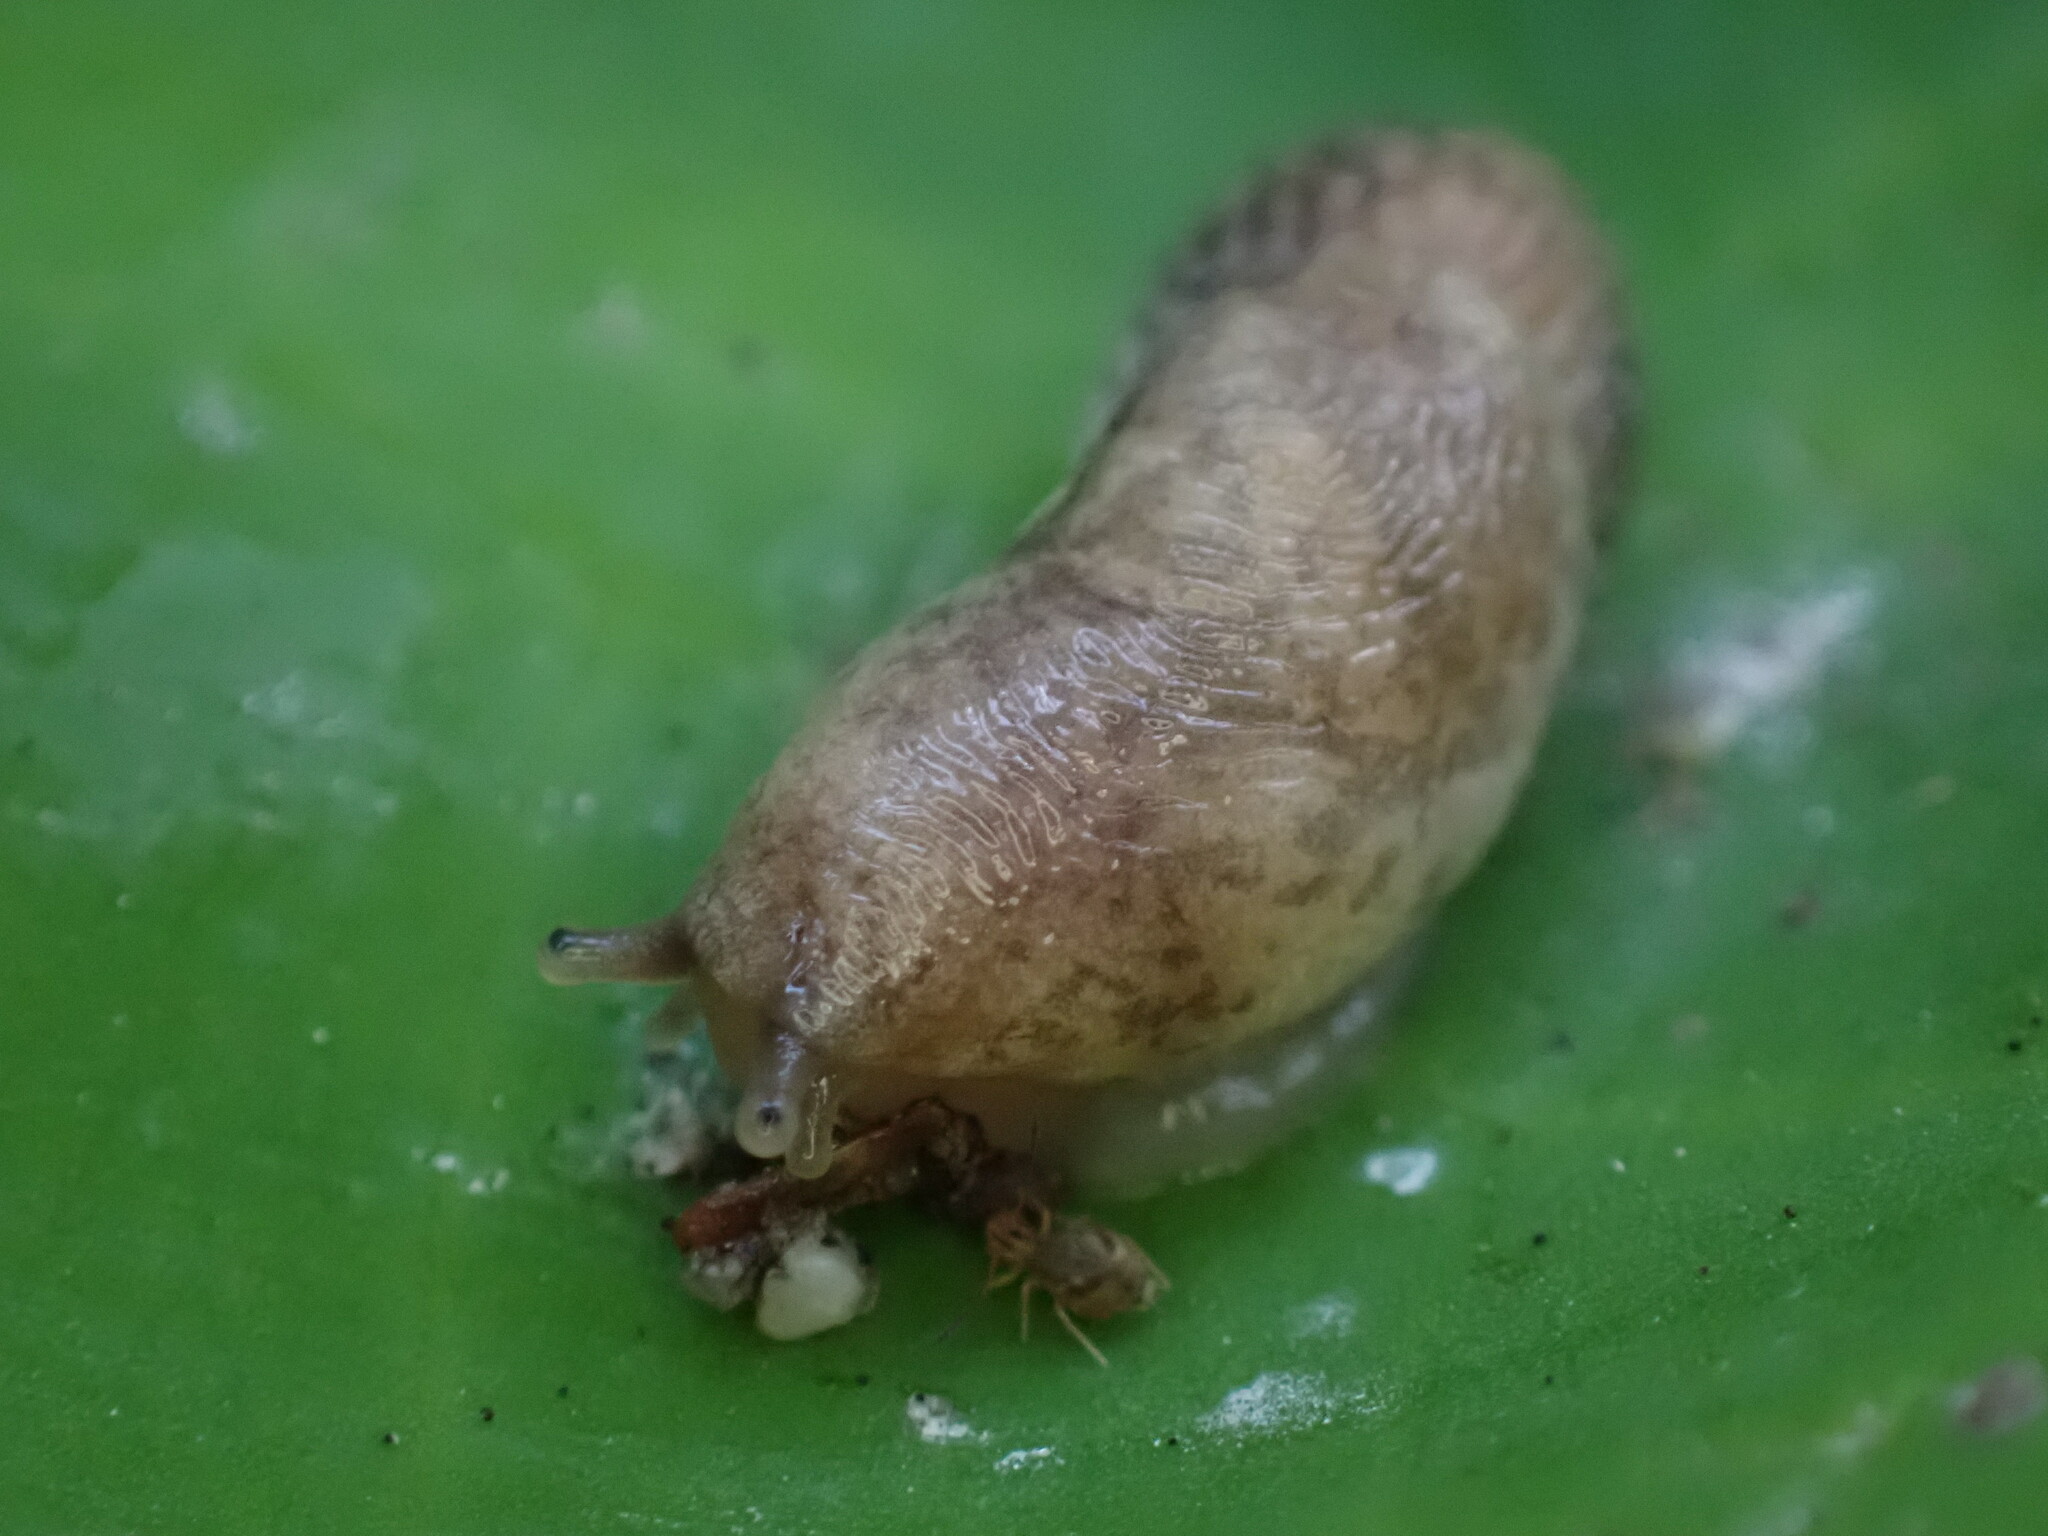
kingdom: Animalia
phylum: Mollusca
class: Gastropoda
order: Stylommatophora
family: Agriolimacidae
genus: Deroceras
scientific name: Deroceras reticulatum
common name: Gray field slug
